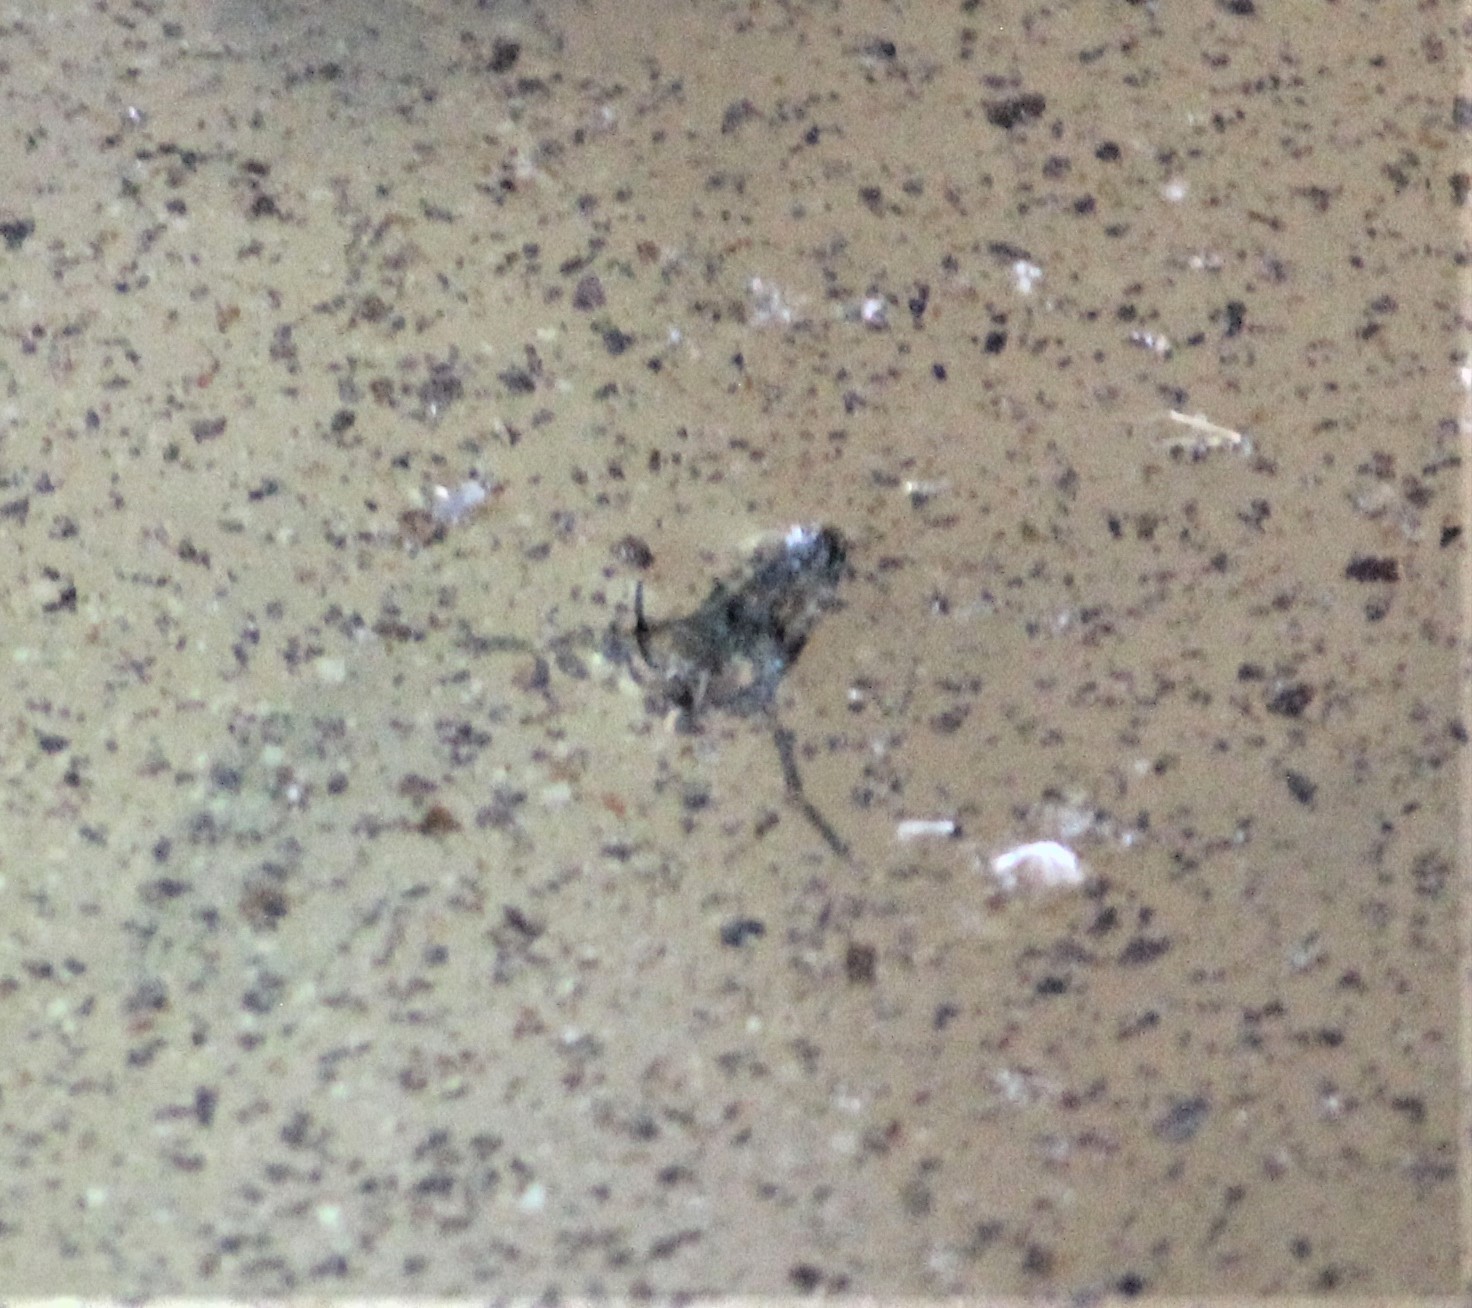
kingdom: Animalia
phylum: Arthropoda
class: Insecta
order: Hemiptera
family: Notonectidae
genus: Notonecta
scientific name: Notonecta
